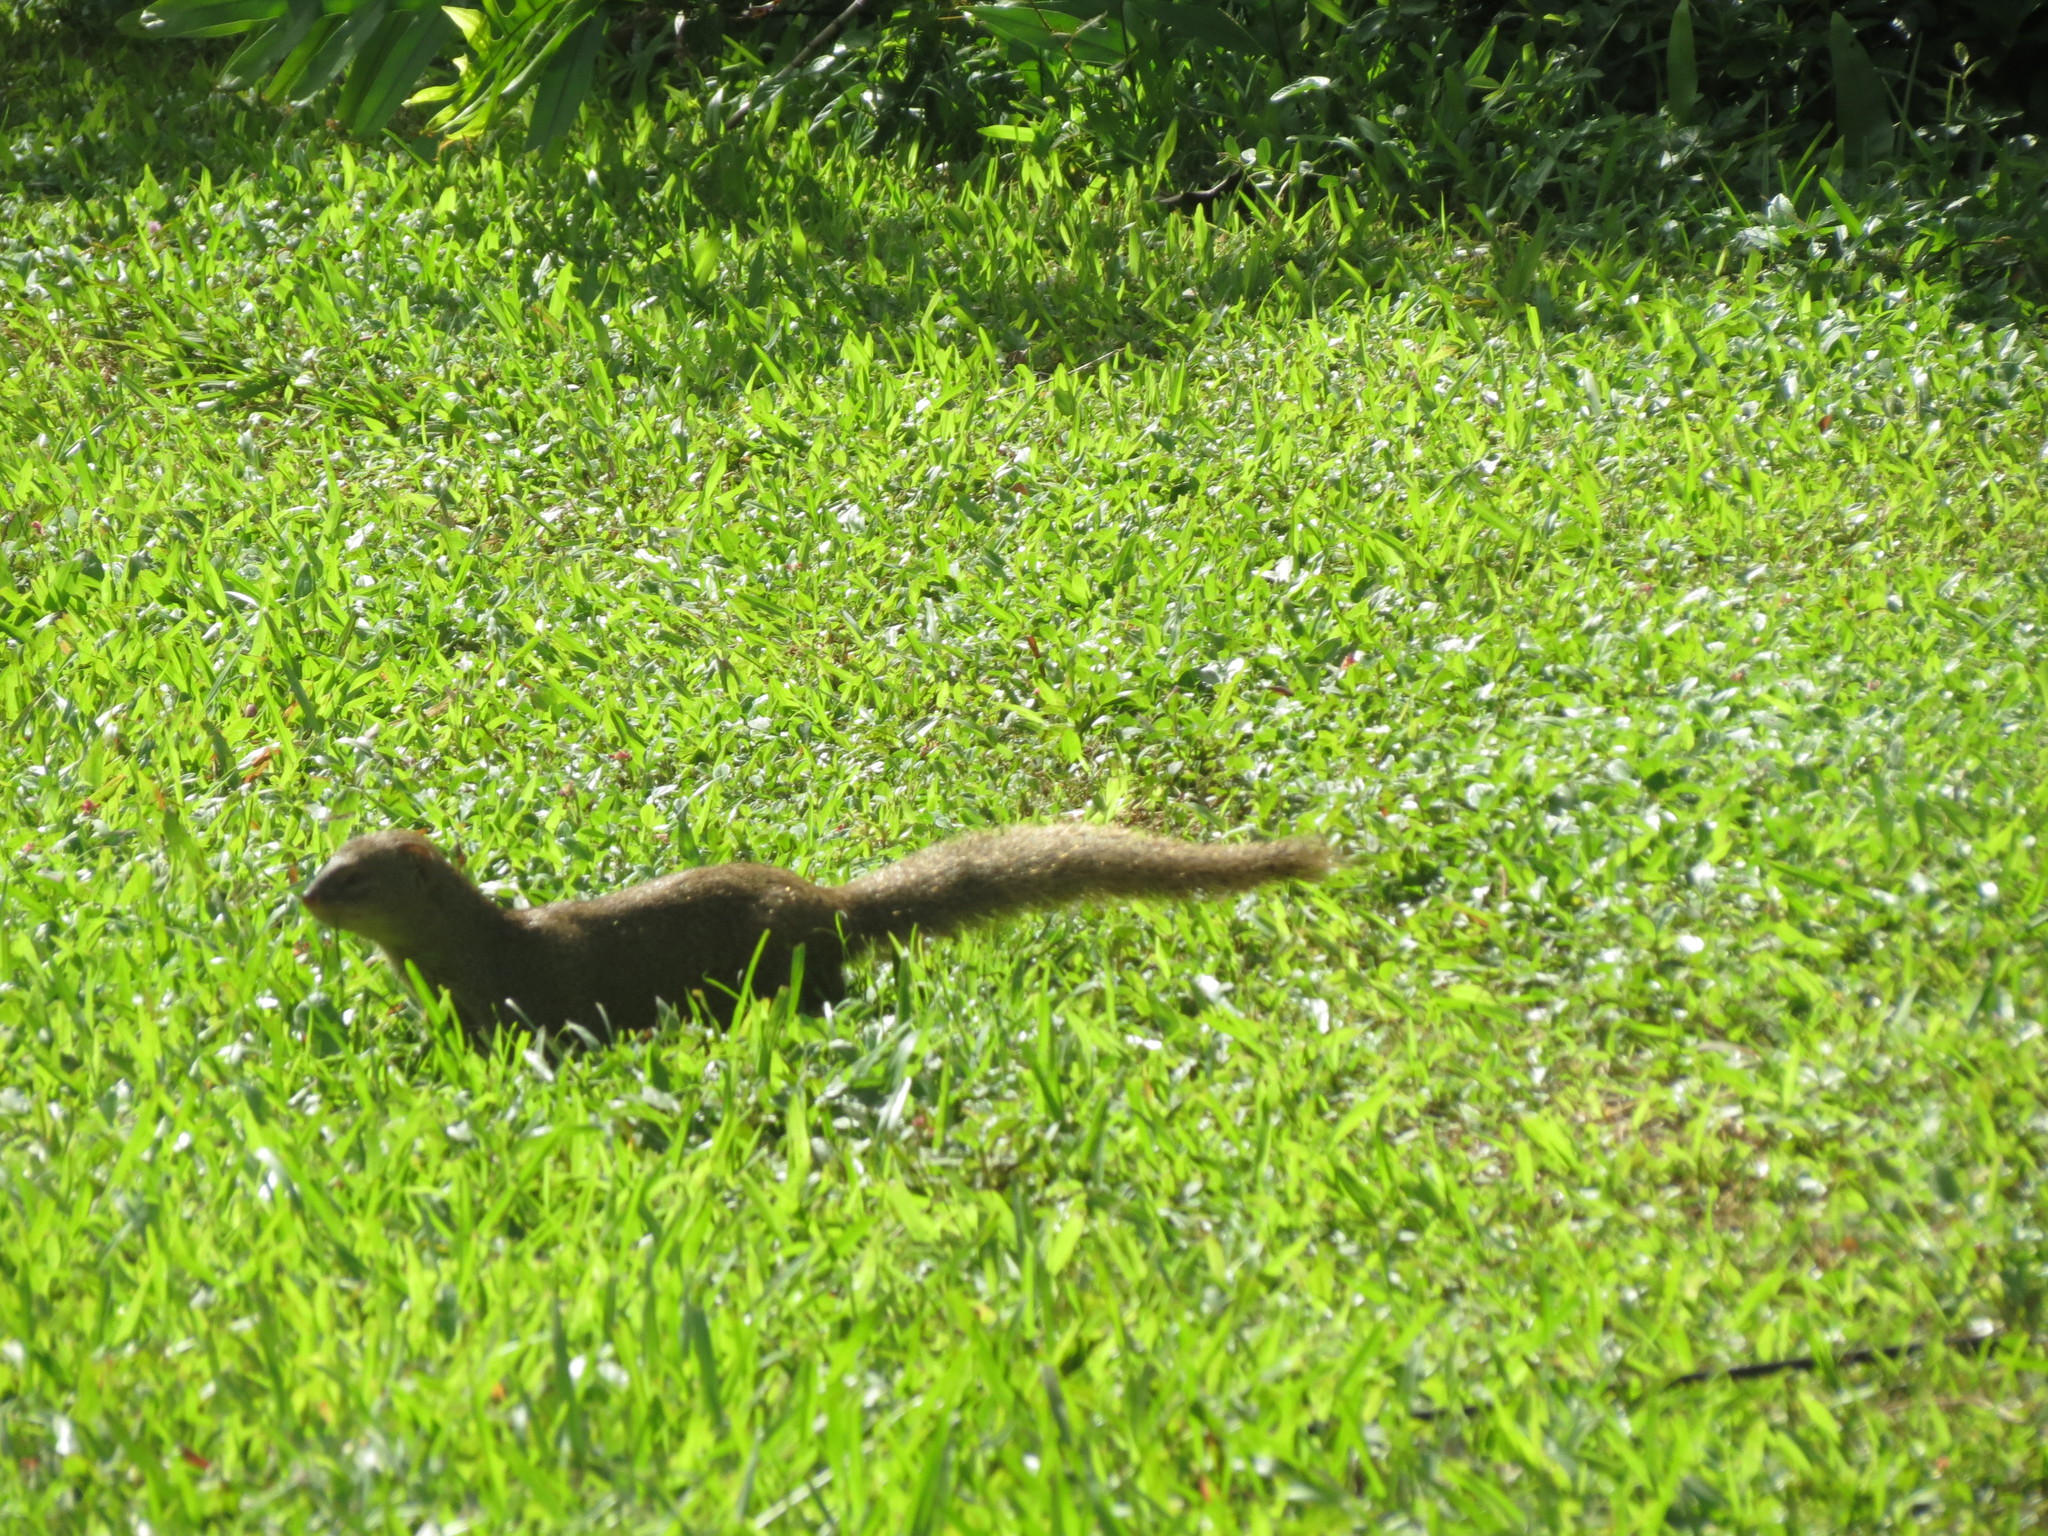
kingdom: Animalia
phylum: Chordata
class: Mammalia
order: Carnivora
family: Herpestidae
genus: Herpestes
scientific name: Herpestes javanicus
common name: Small asian mongoose
